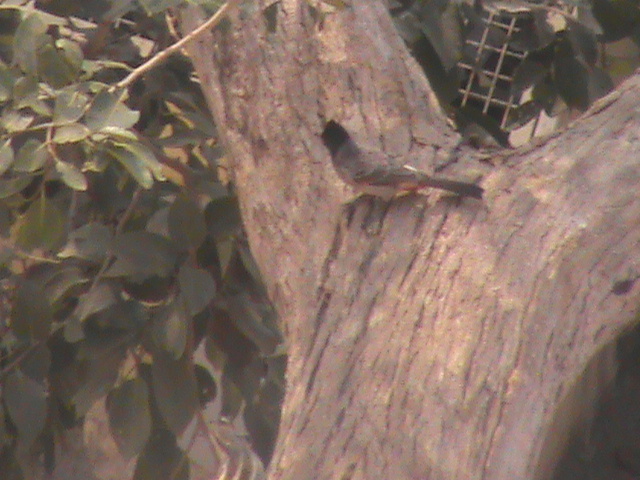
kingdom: Animalia
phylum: Chordata
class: Aves
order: Passeriformes
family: Pycnonotidae
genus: Pycnonotus
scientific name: Pycnonotus cafer
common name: Red-vented bulbul
